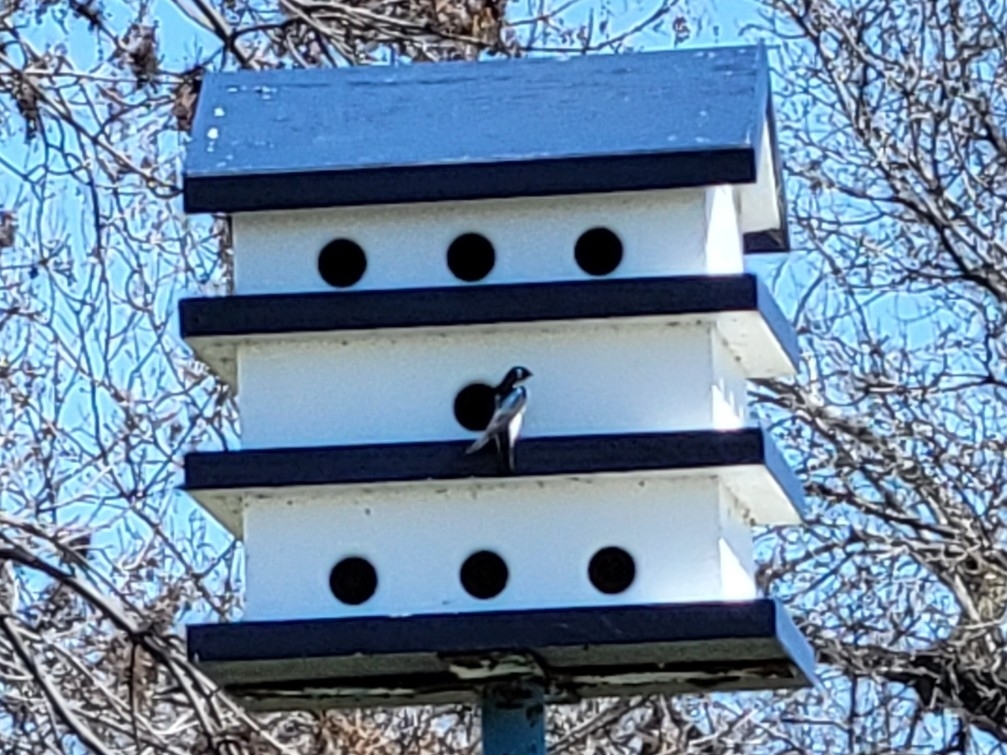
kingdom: Animalia
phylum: Chordata
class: Aves
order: Passeriformes
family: Hirundinidae
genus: Tachycineta
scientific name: Tachycineta bicolor
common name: Tree swallow
